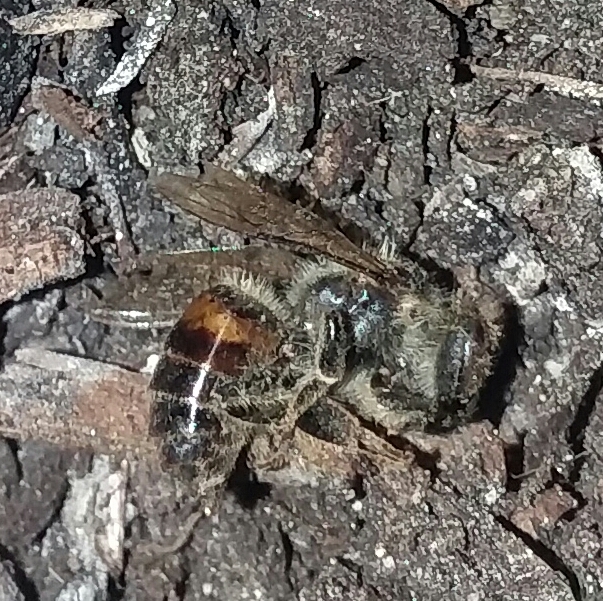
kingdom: Animalia
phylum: Arthropoda
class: Insecta
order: Hymenoptera
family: Apidae
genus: Apis
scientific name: Apis mellifera
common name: Honey bee
